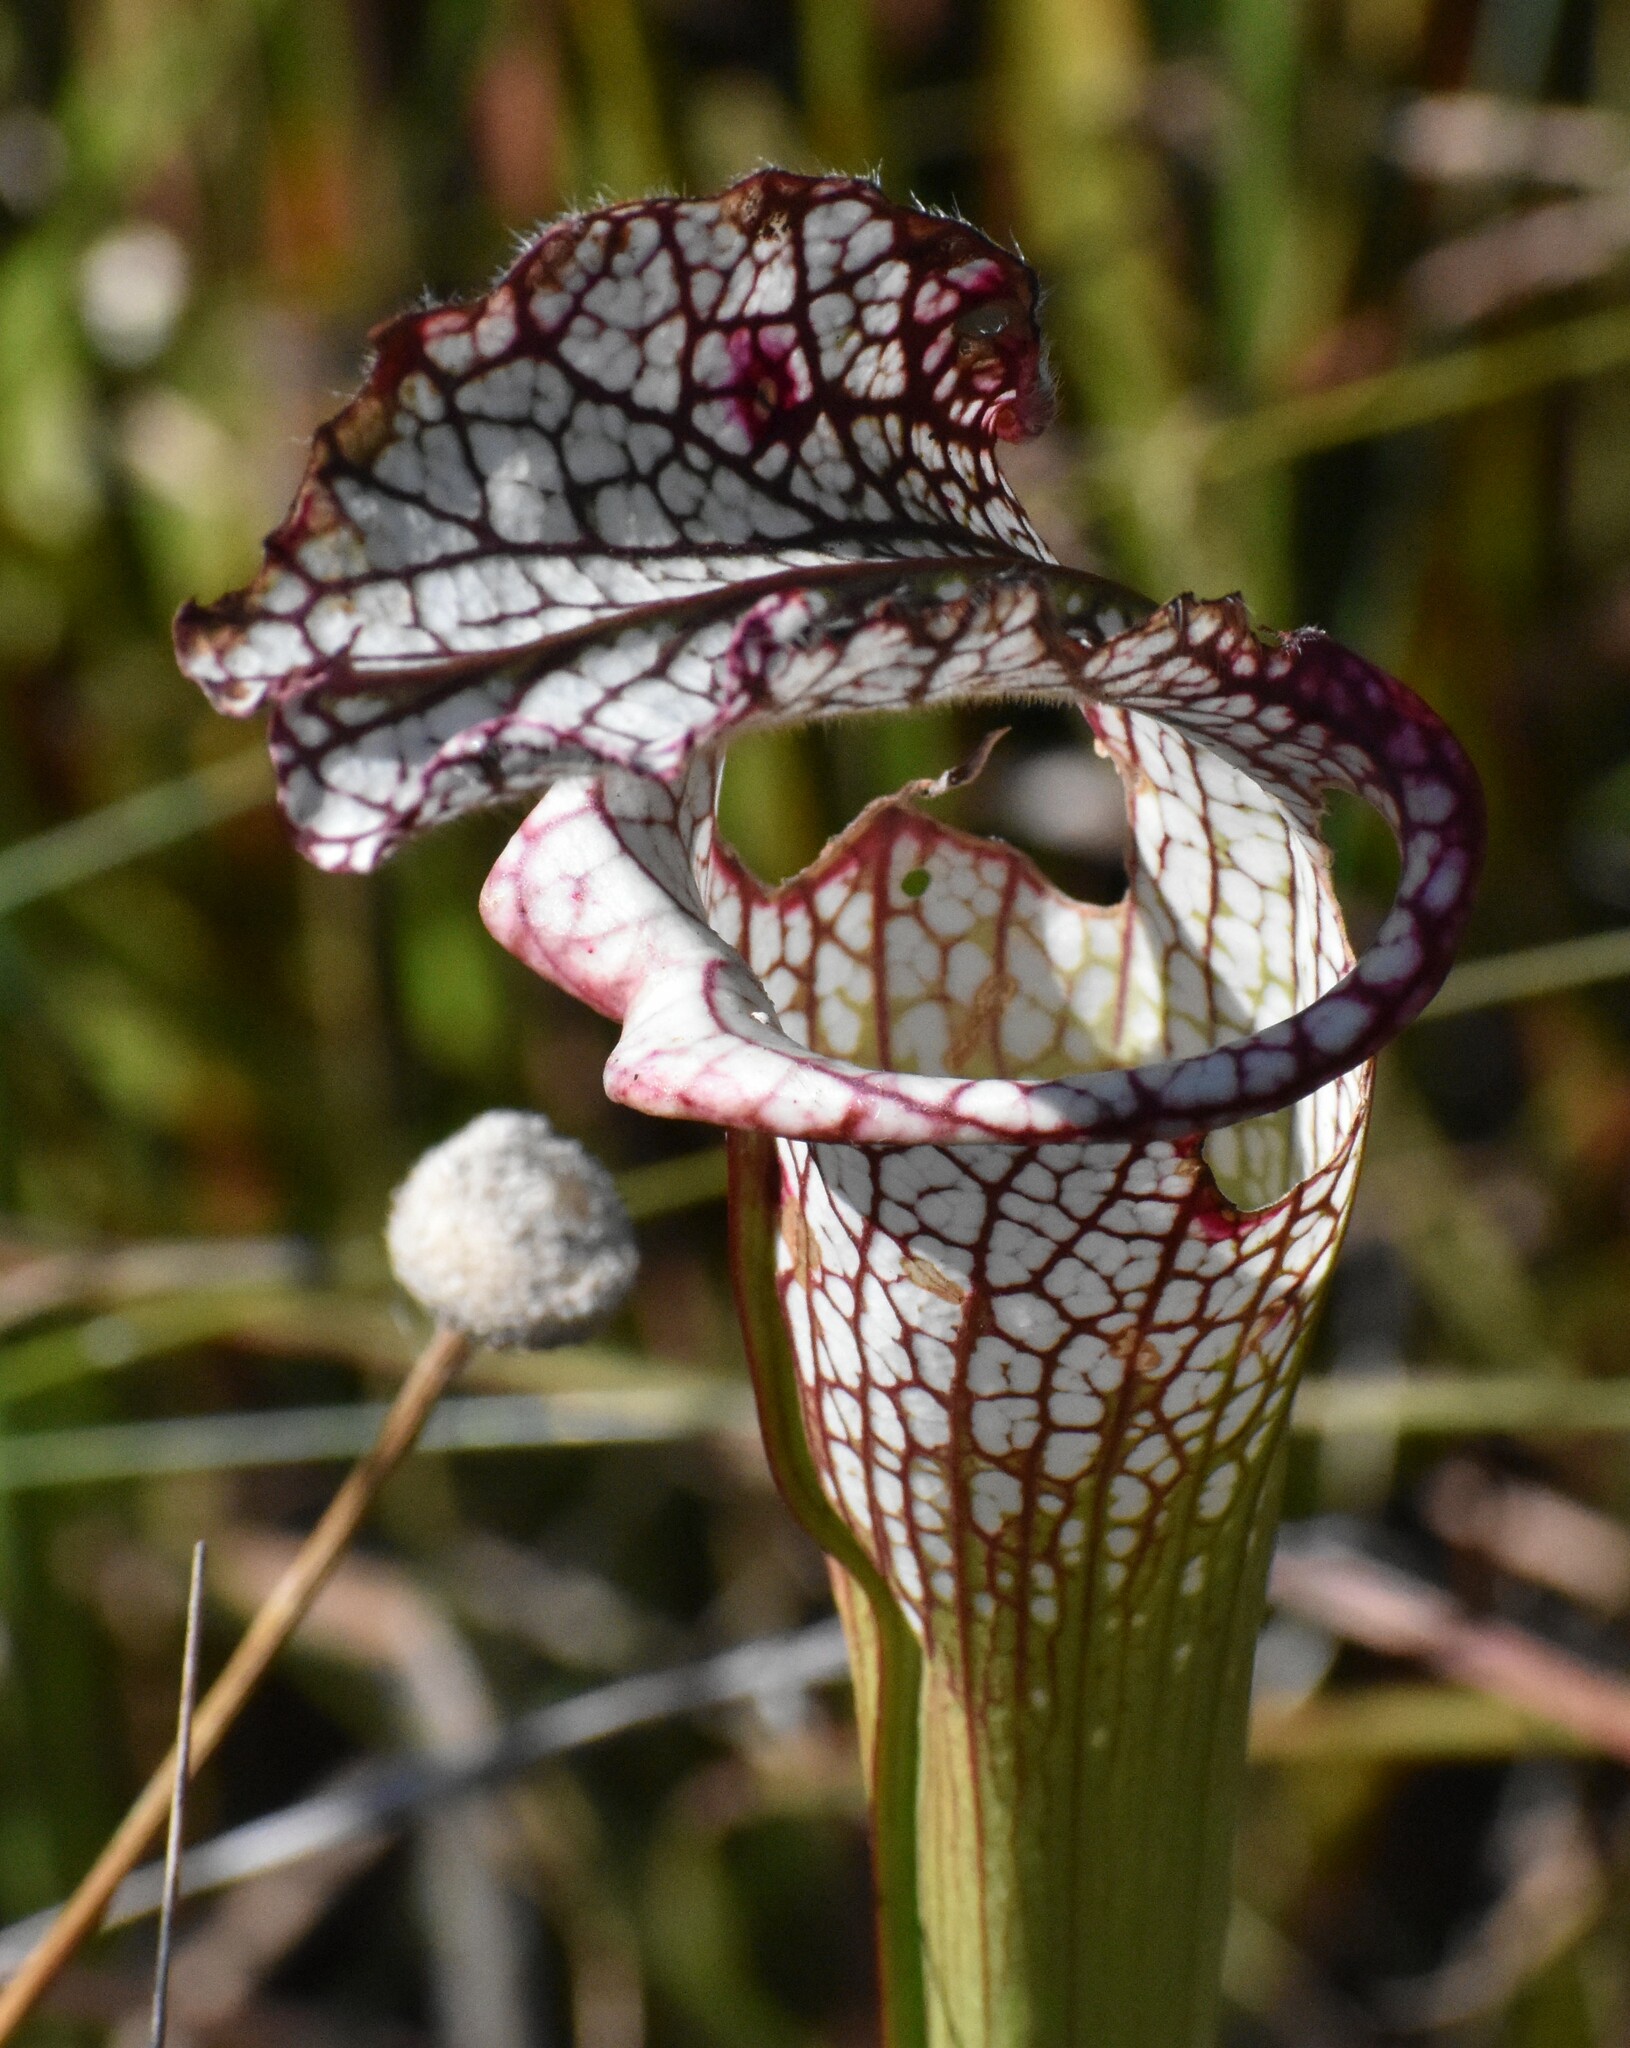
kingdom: Plantae
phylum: Tracheophyta
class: Magnoliopsida
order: Ericales
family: Sarraceniaceae
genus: Sarracenia
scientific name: Sarracenia leucophylla
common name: Purple trumpetleaf
